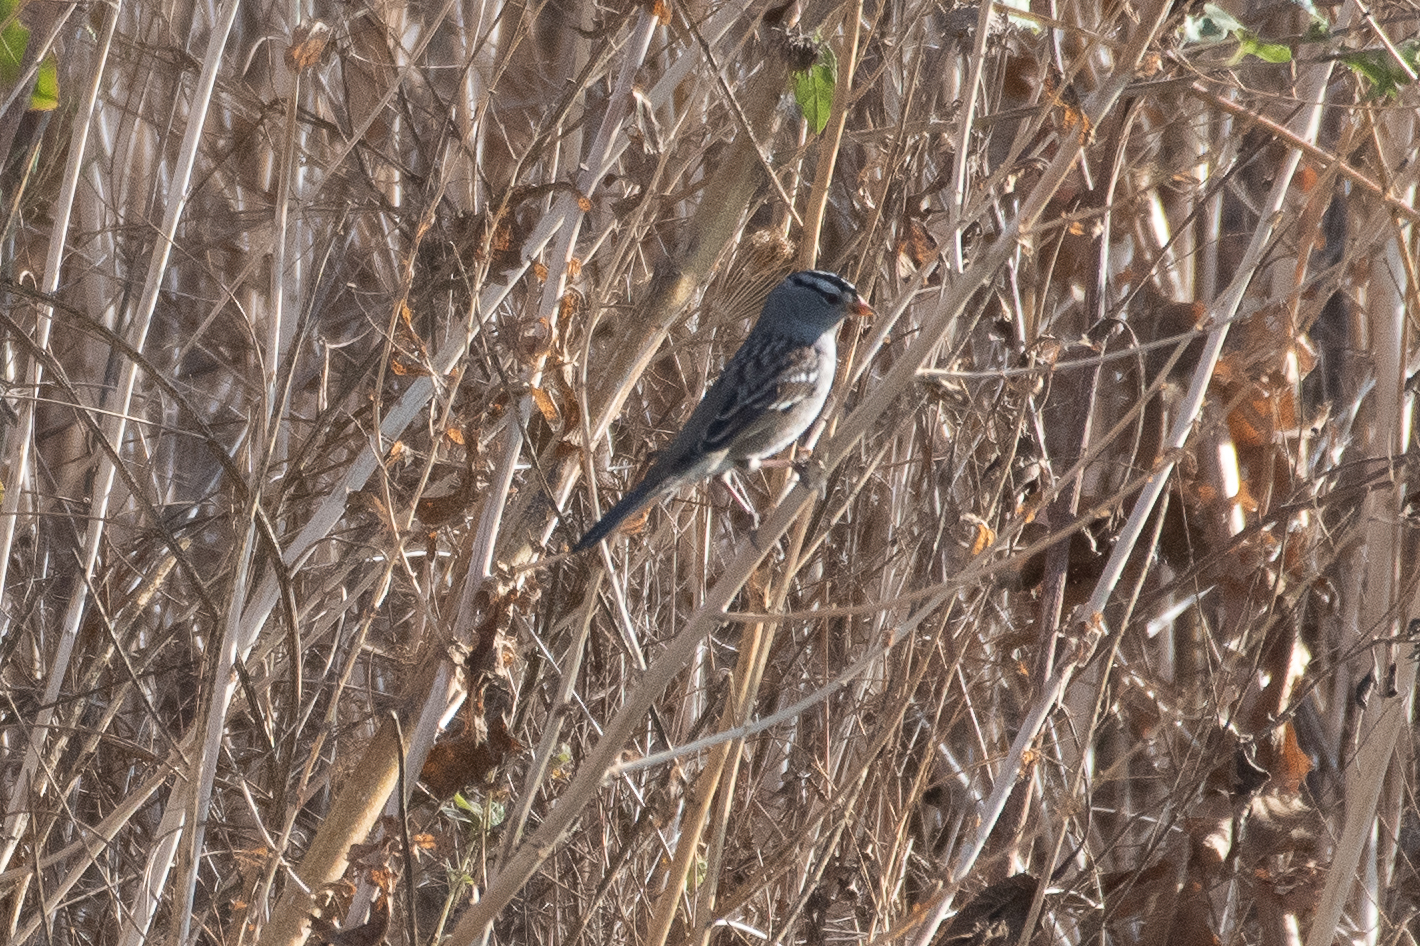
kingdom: Animalia
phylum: Chordata
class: Aves
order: Passeriformes
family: Passerellidae
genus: Zonotrichia
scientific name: Zonotrichia leucophrys
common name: White-crowned sparrow
